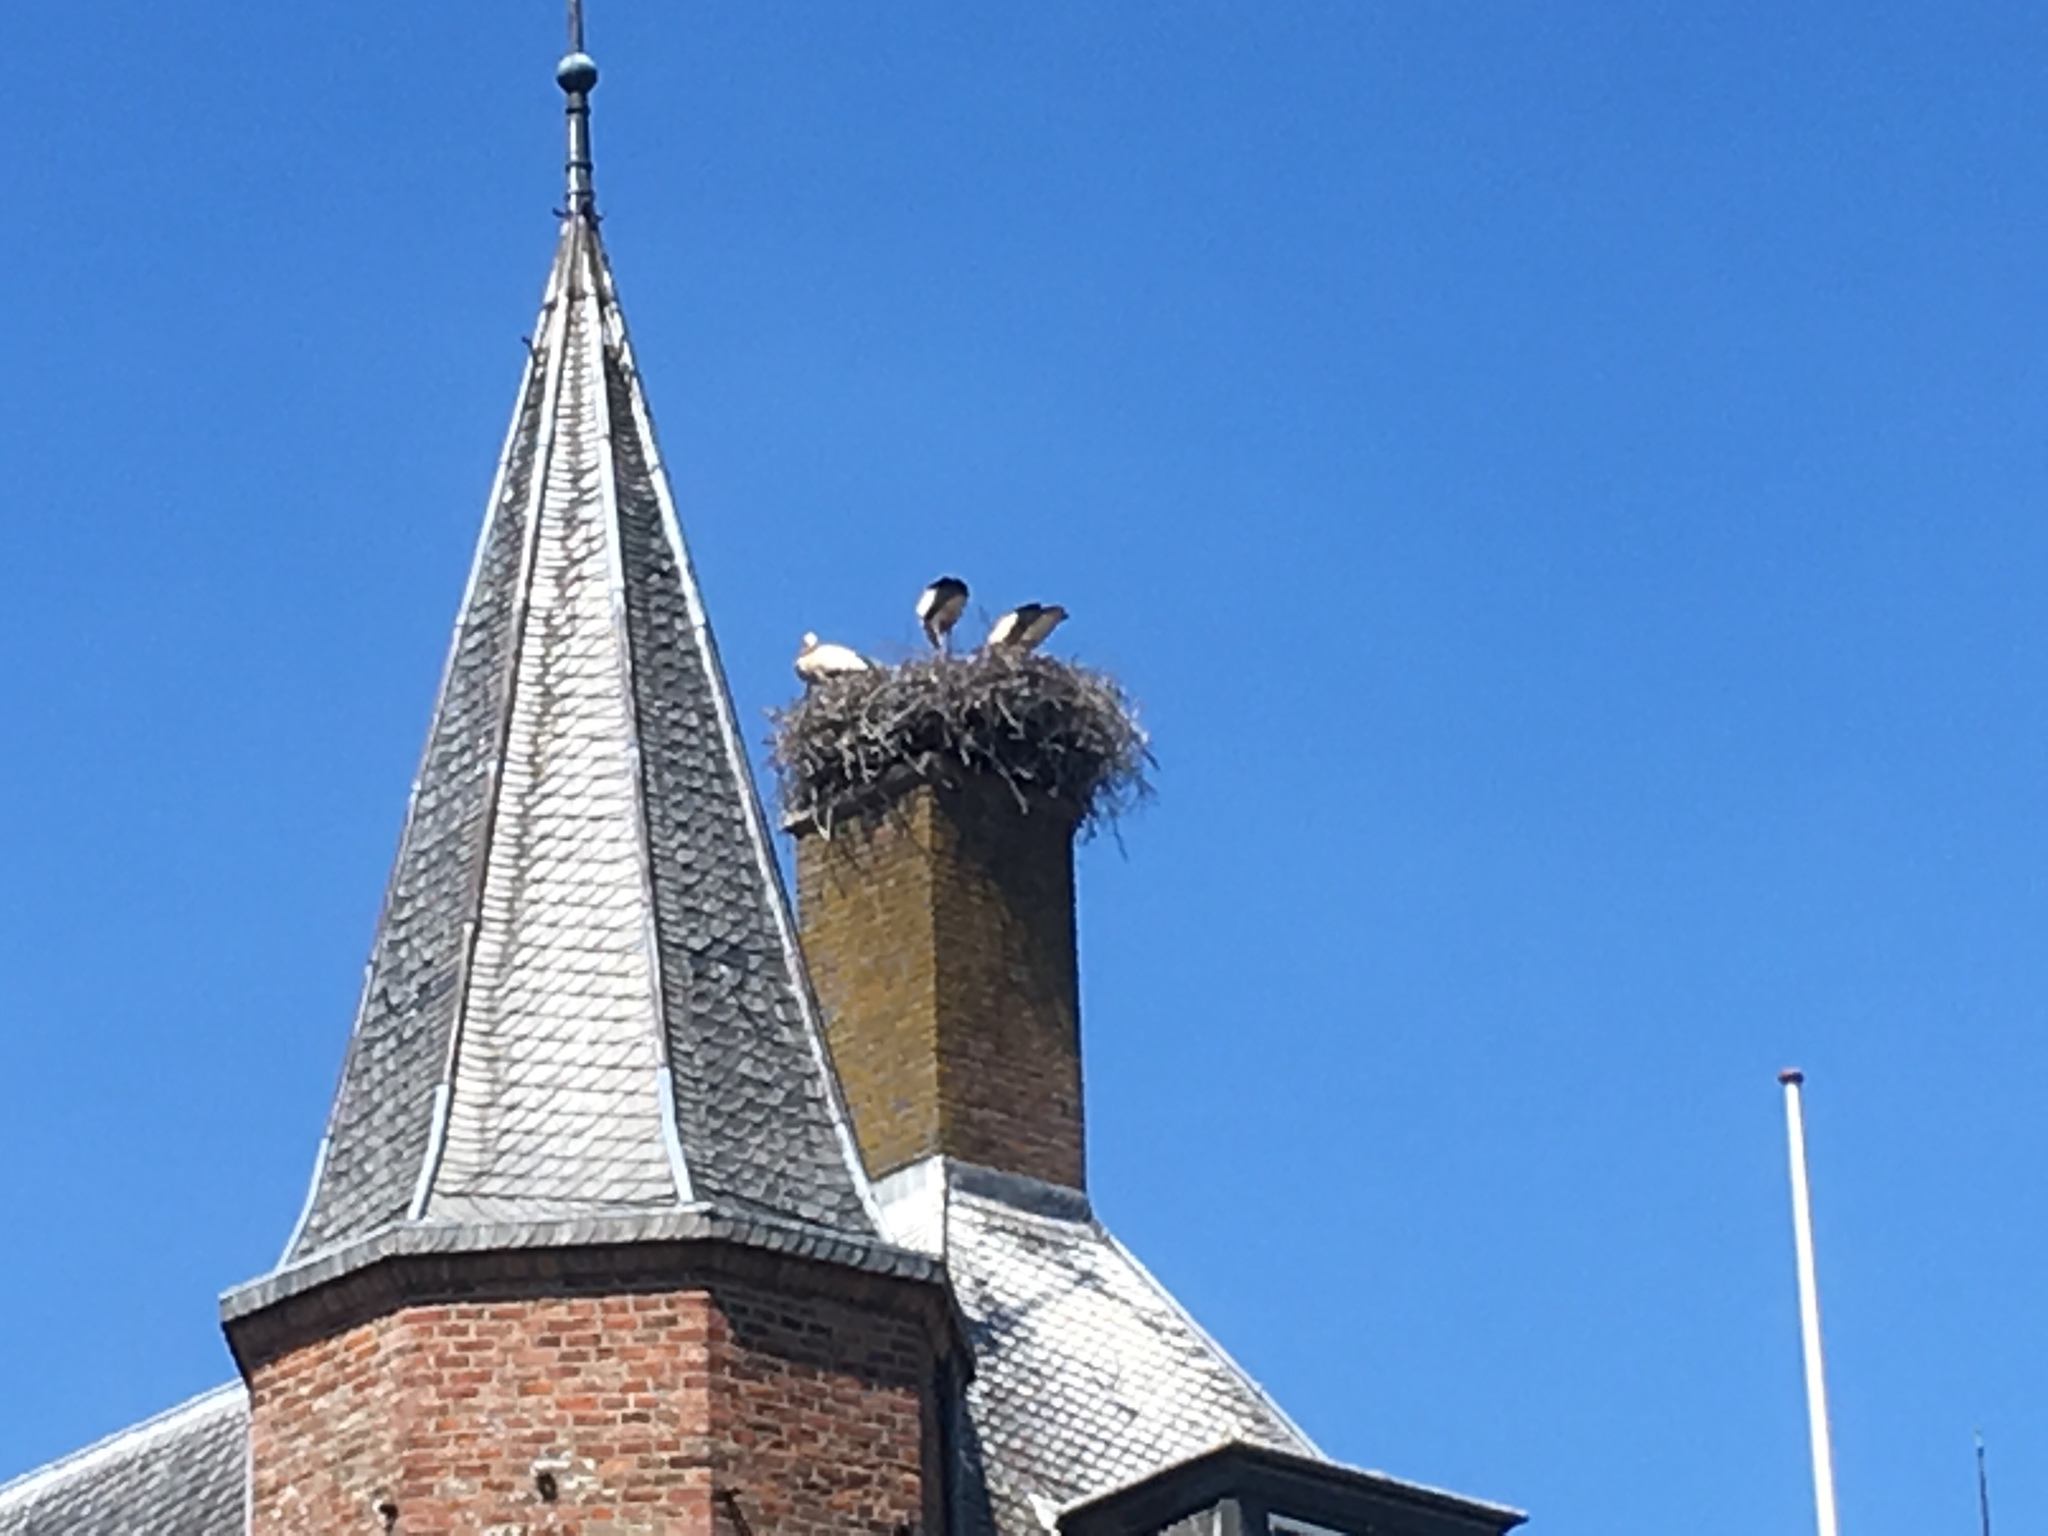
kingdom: Animalia
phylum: Chordata
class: Aves
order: Ciconiiformes
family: Ciconiidae
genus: Ciconia
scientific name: Ciconia ciconia
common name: White stork
